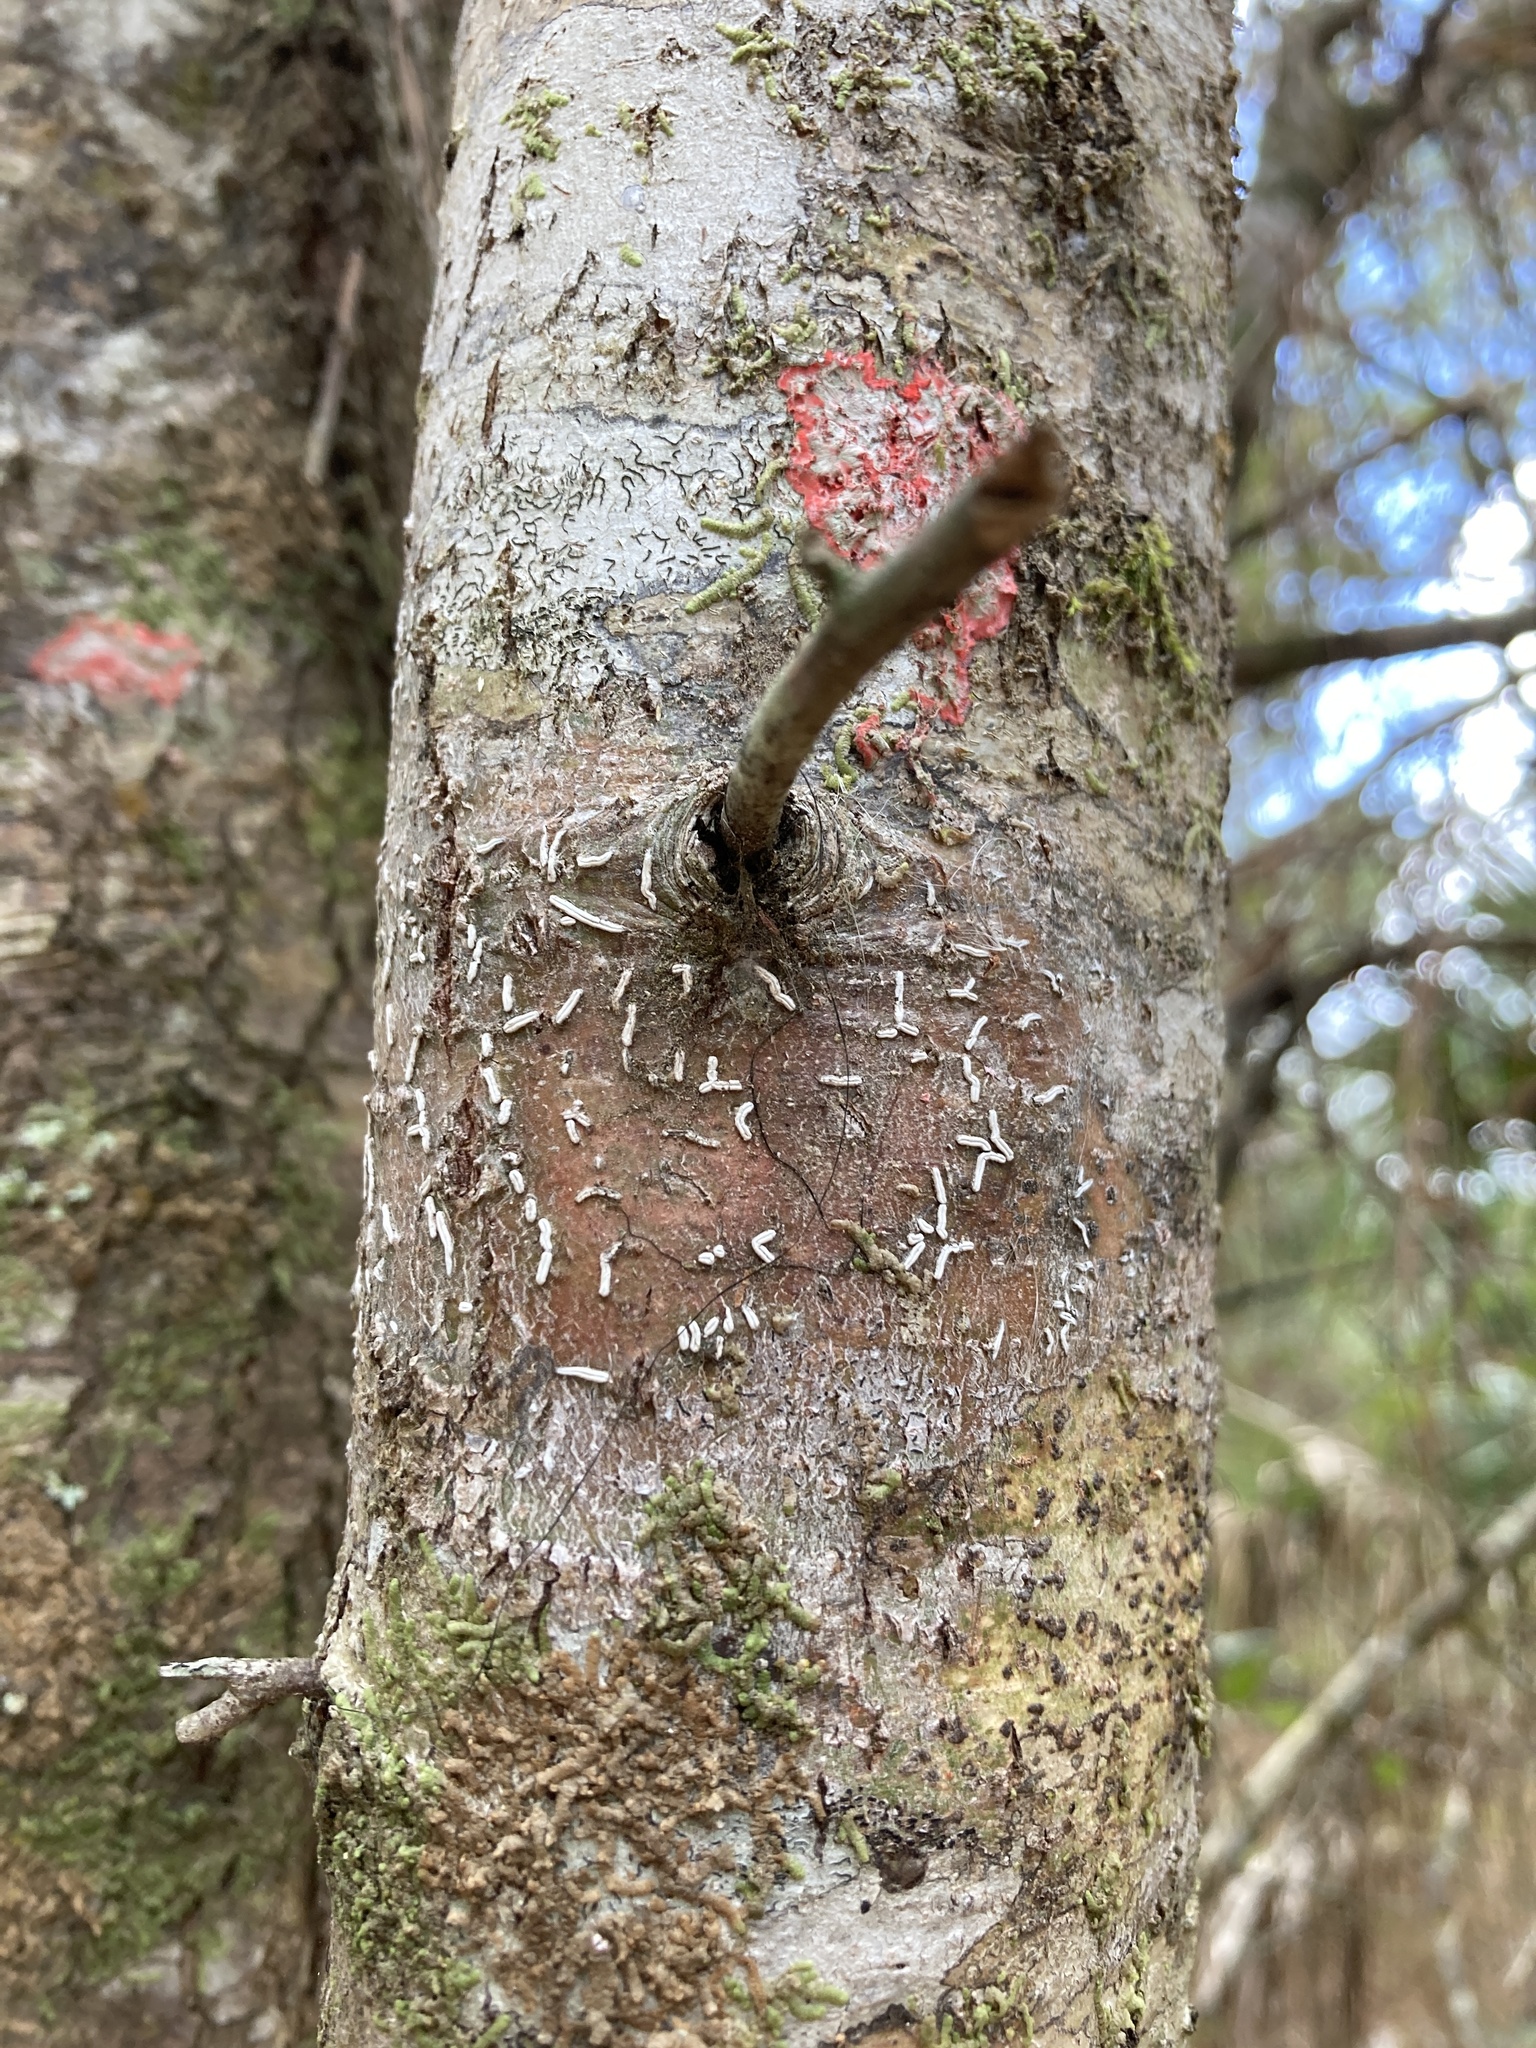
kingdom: Fungi
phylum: Ascomycota
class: Lecanoromycetes
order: Ostropales
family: Graphidaceae
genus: Dyplolabia
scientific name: Dyplolabia afzelii
